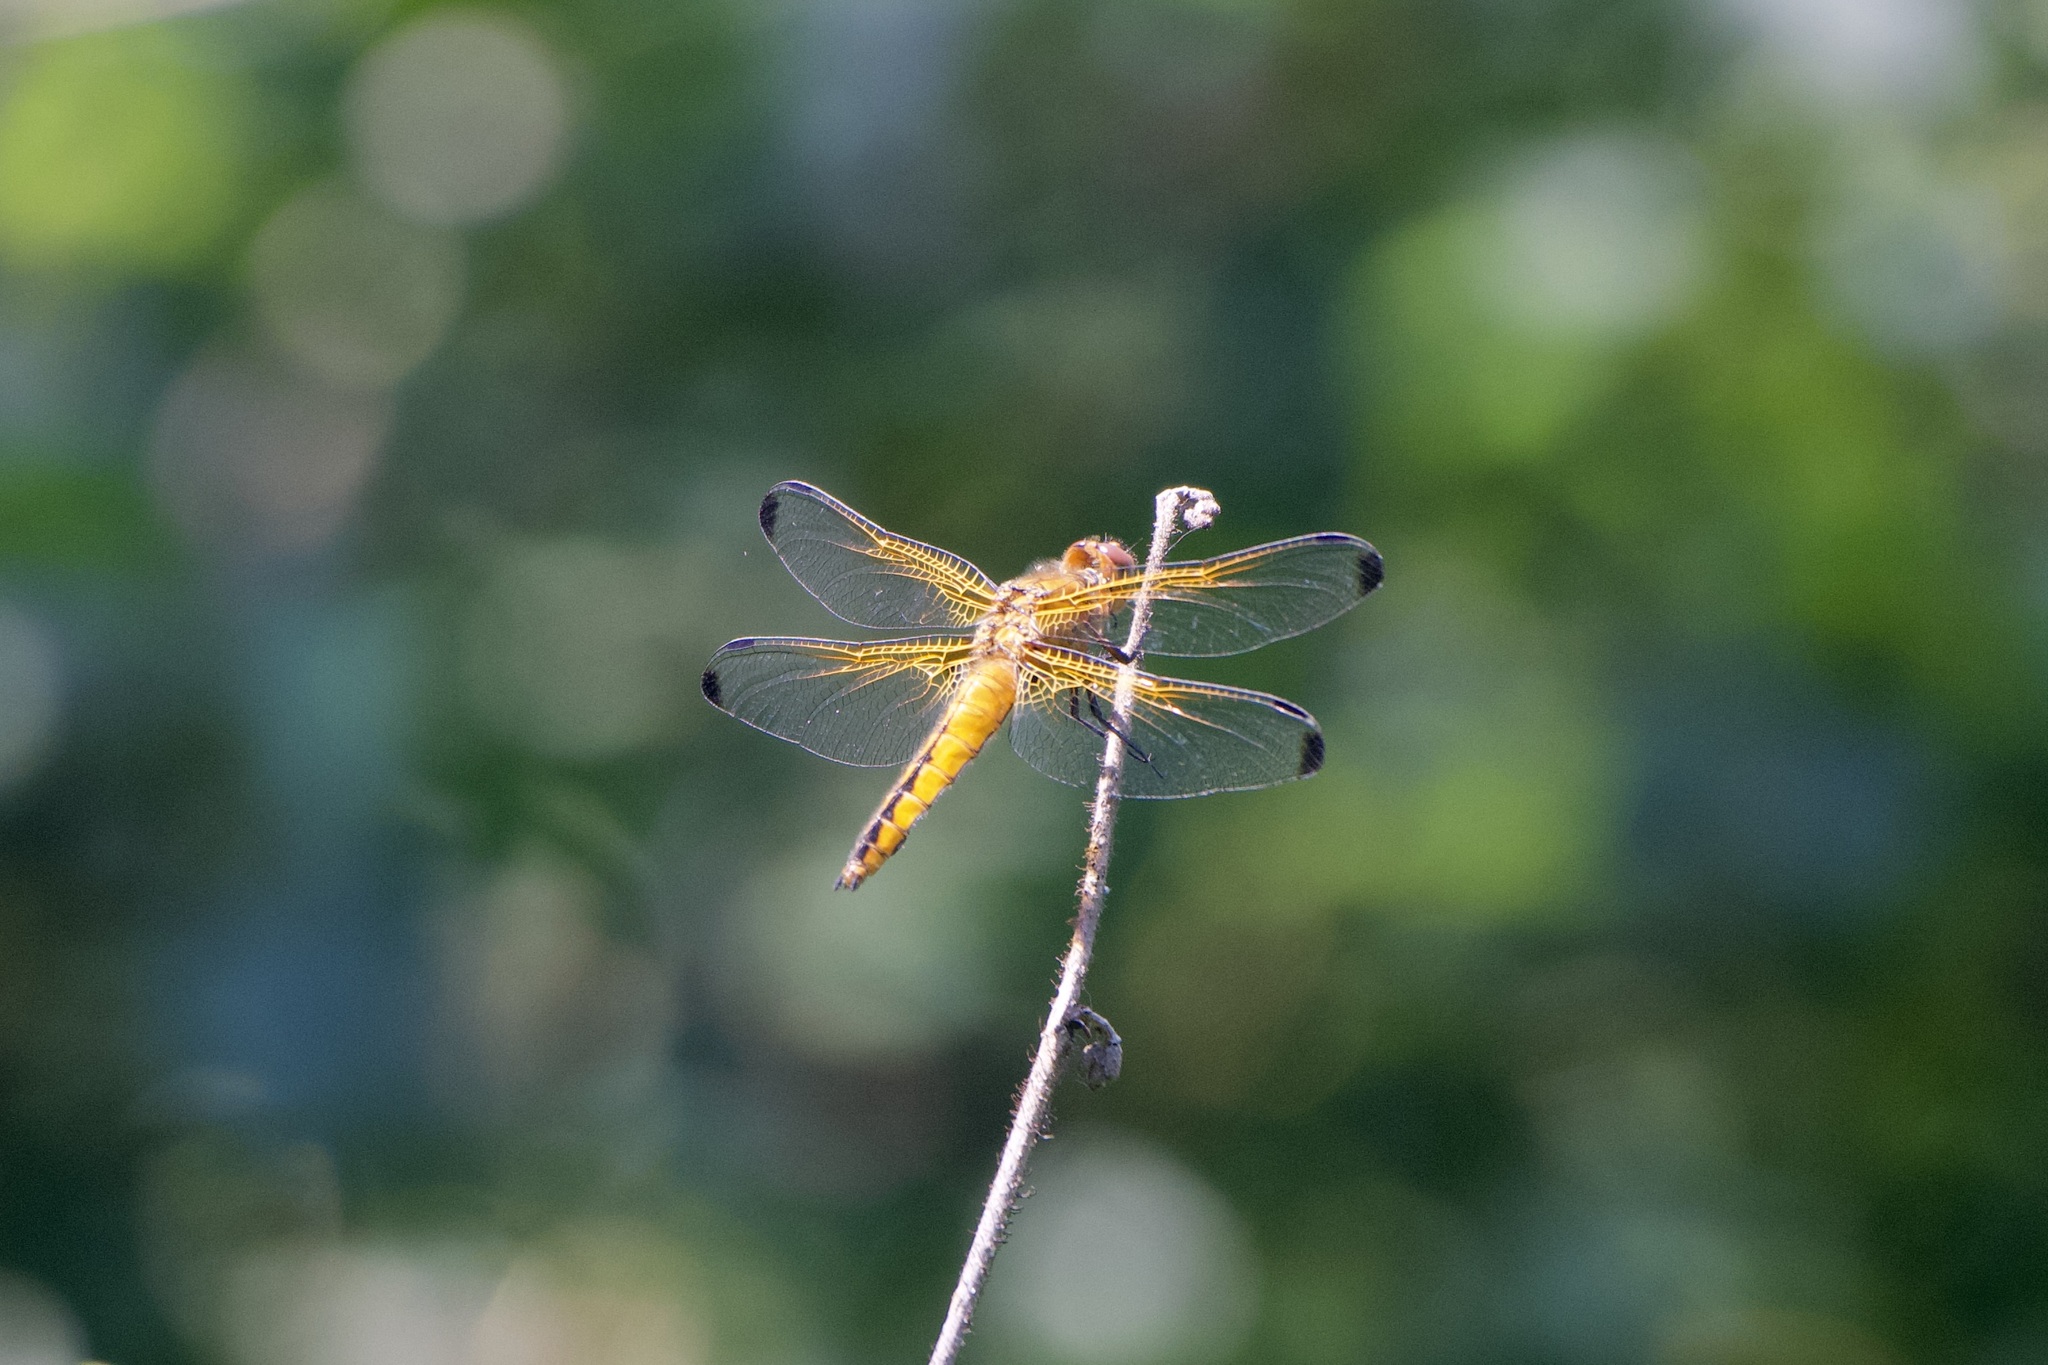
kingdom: Animalia
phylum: Arthropoda
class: Insecta
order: Odonata
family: Libellulidae
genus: Libellula
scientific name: Libellula fulva
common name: Blue chaser
